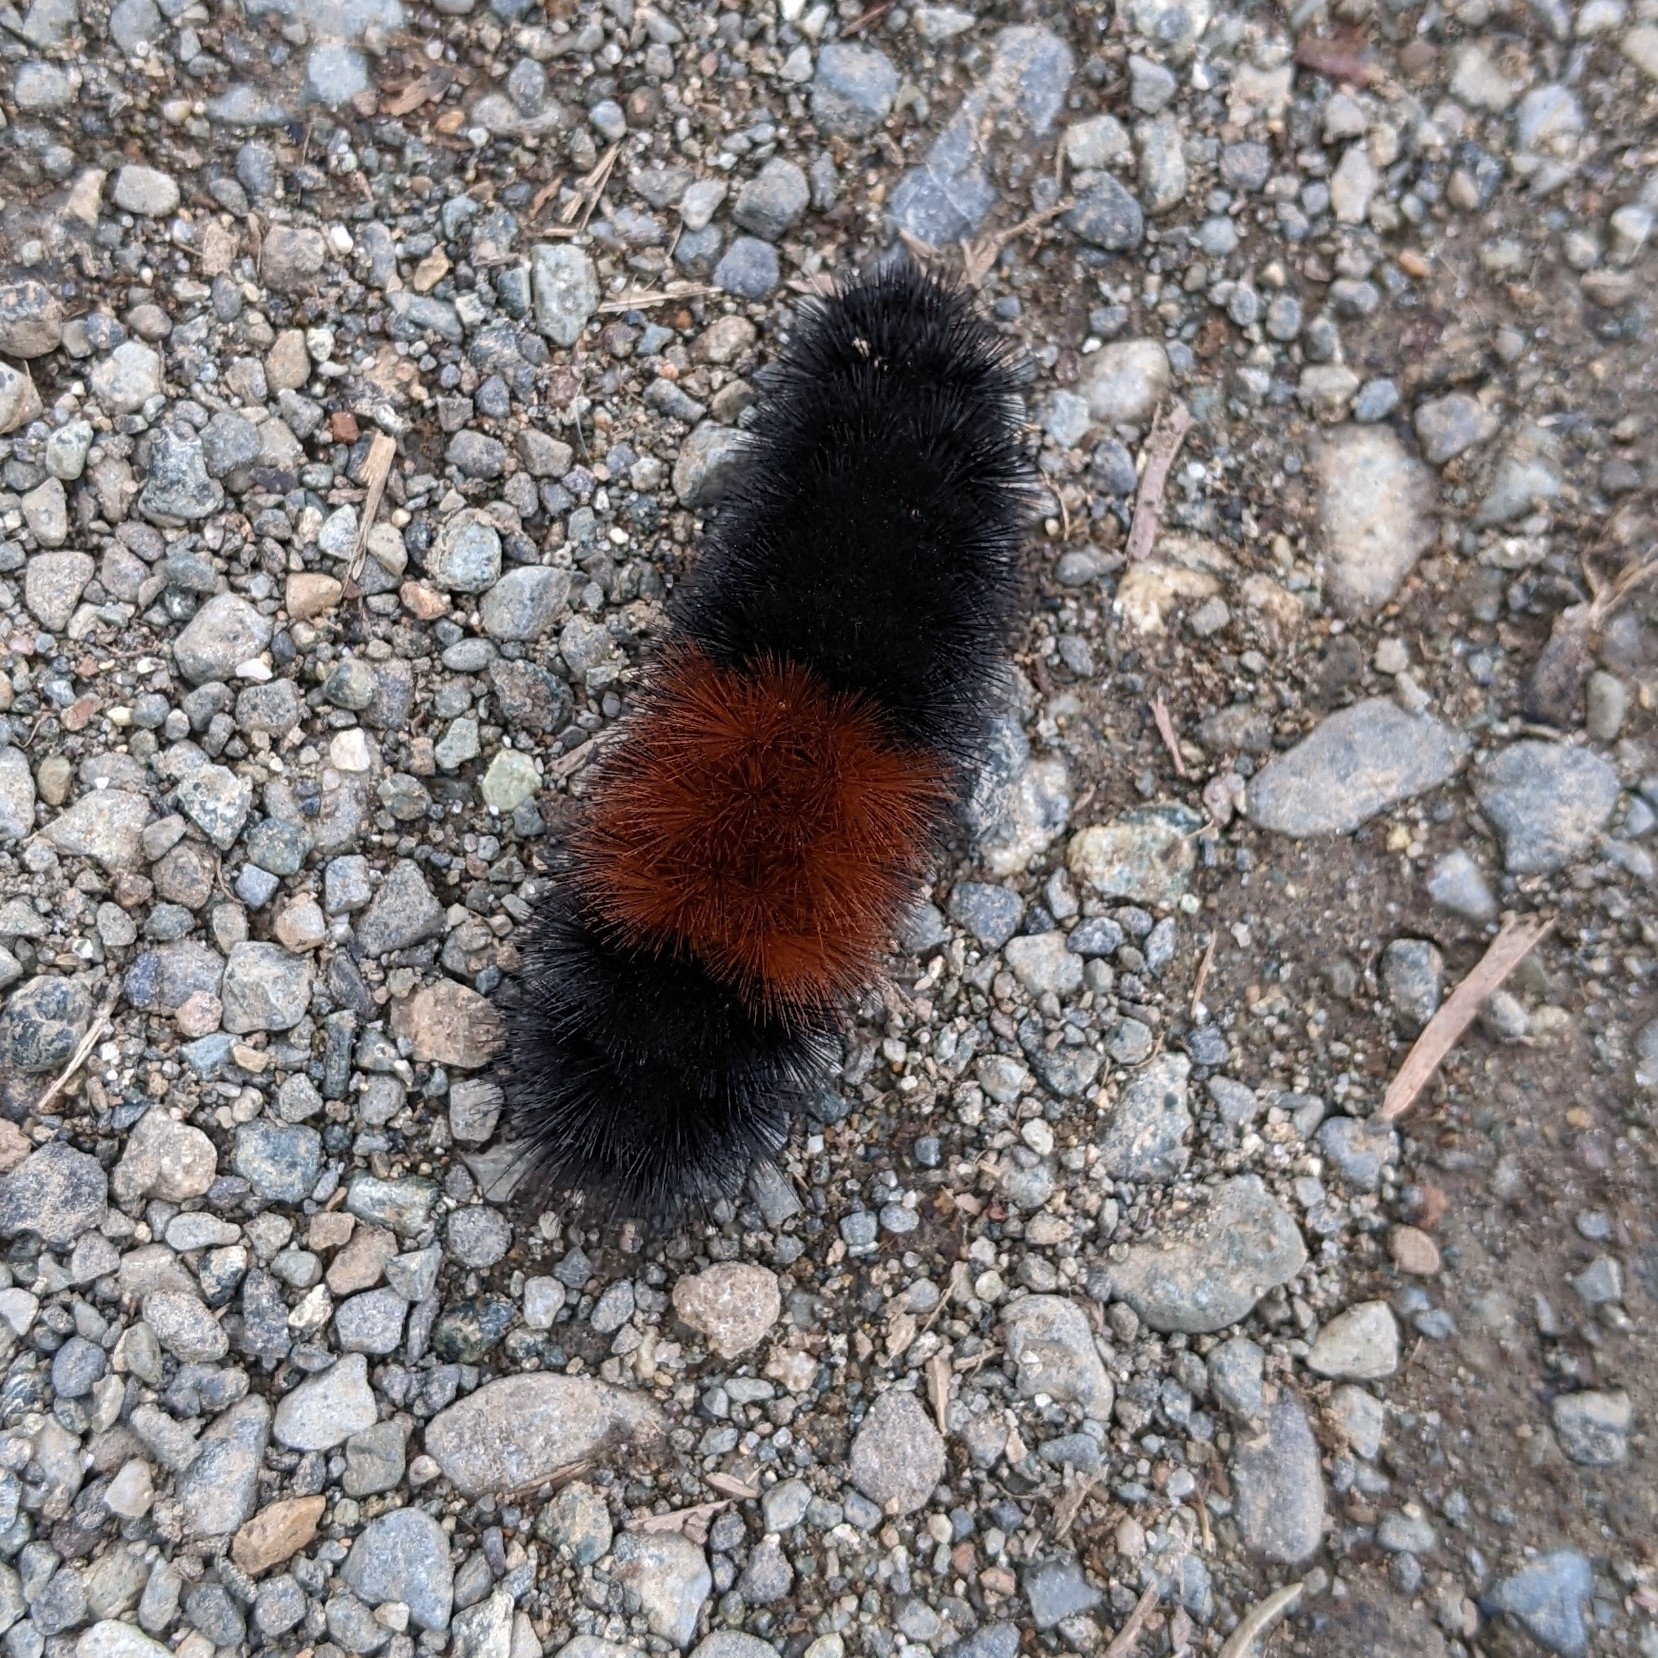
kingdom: Animalia
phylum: Arthropoda
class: Insecta
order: Lepidoptera
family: Erebidae
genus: Pyrrharctia
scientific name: Pyrrharctia isabella
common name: Isabella tiger moth
